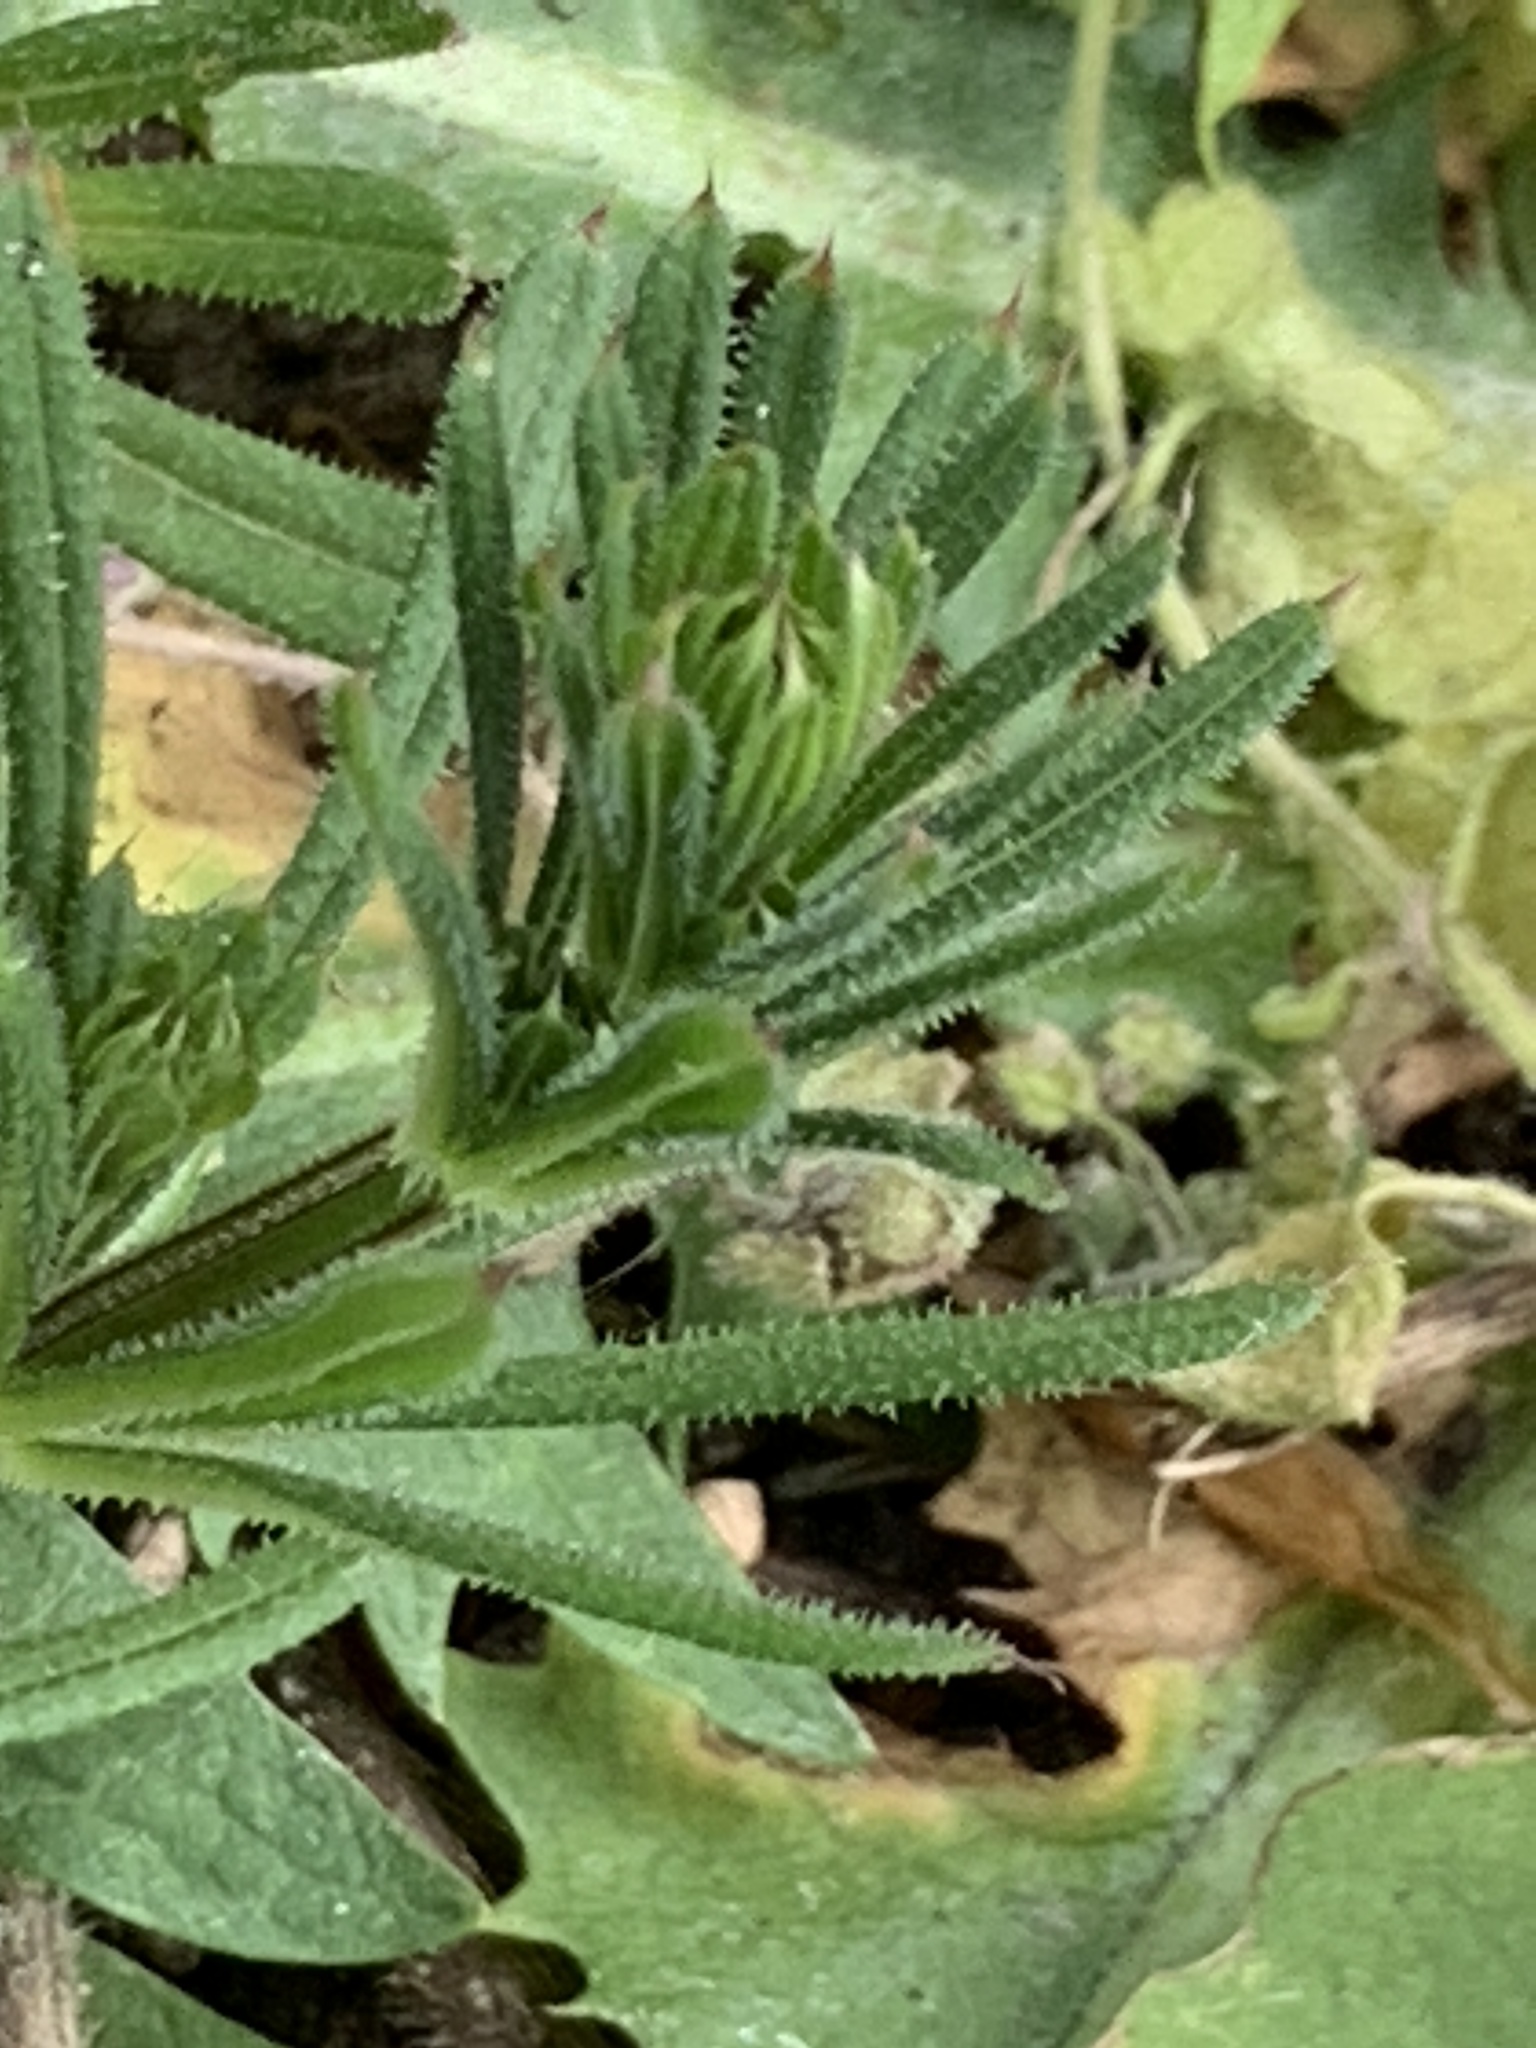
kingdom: Plantae
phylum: Tracheophyta
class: Magnoliopsida
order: Gentianales
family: Rubiaceae
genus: Galium
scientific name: Galium aparine
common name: Cleavers
